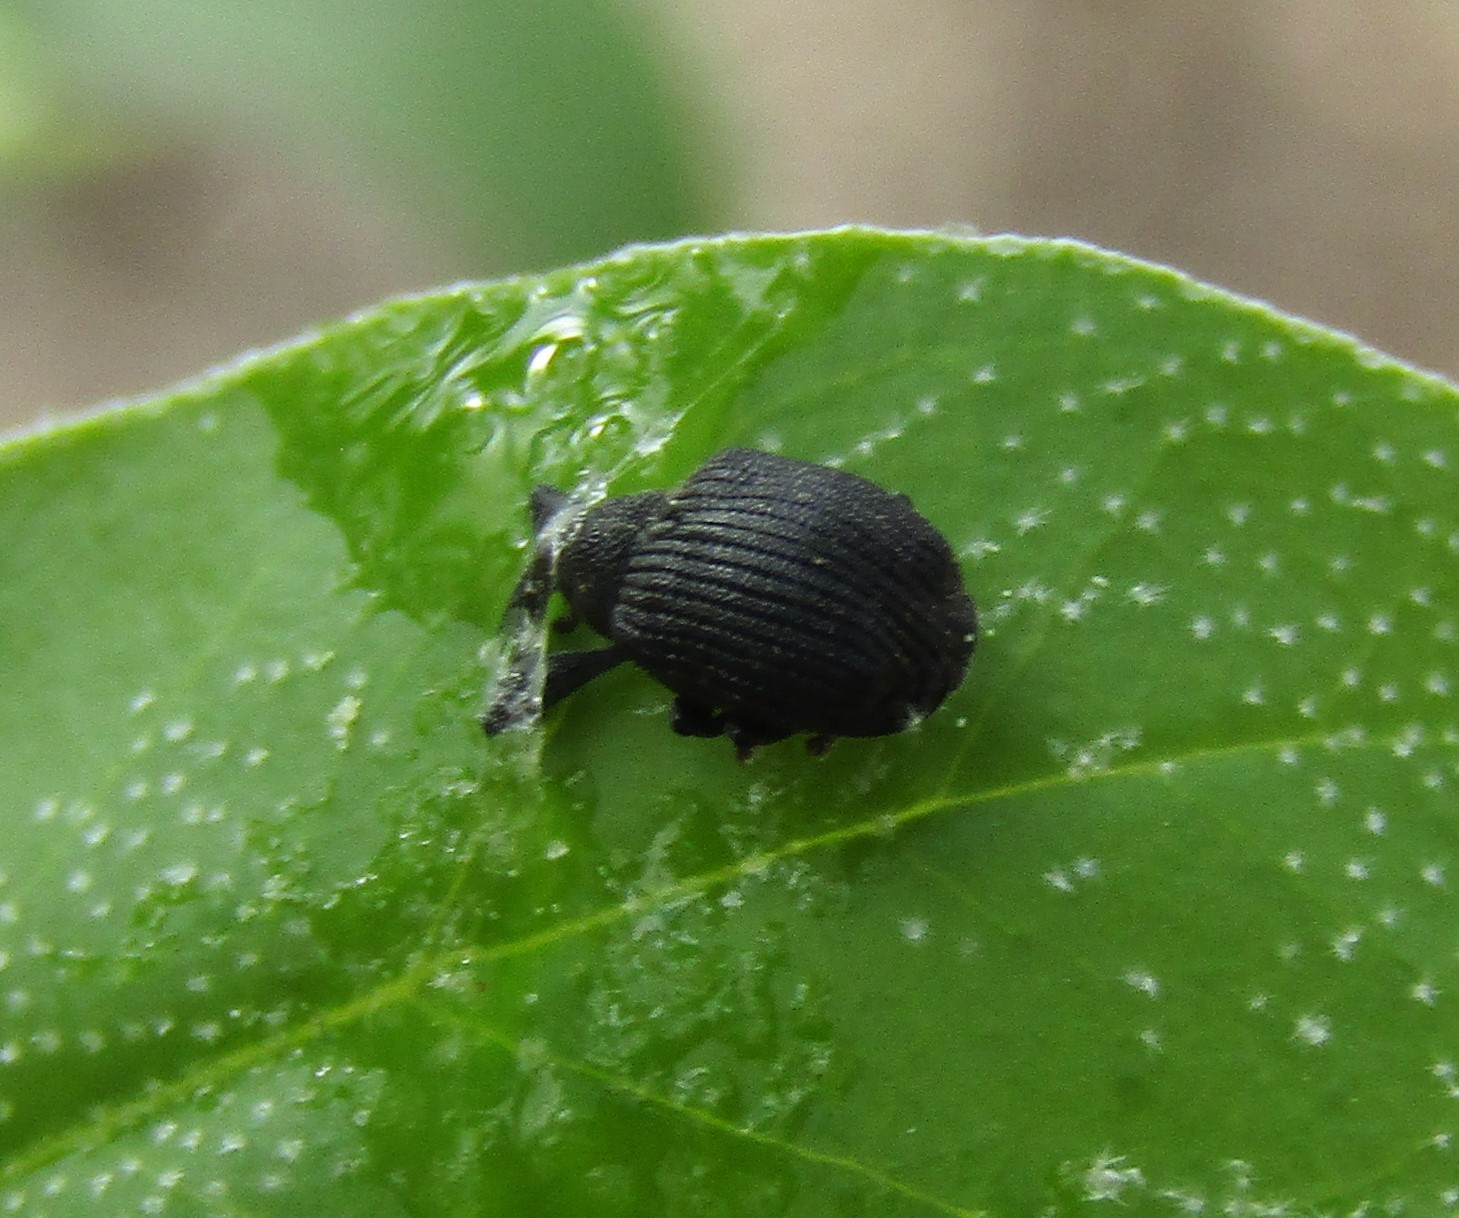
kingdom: Animalia
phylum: Arthropoda
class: Insecta
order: Coleoptera
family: Curculionidae
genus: Odontopus
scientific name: Odontopus calceatus
